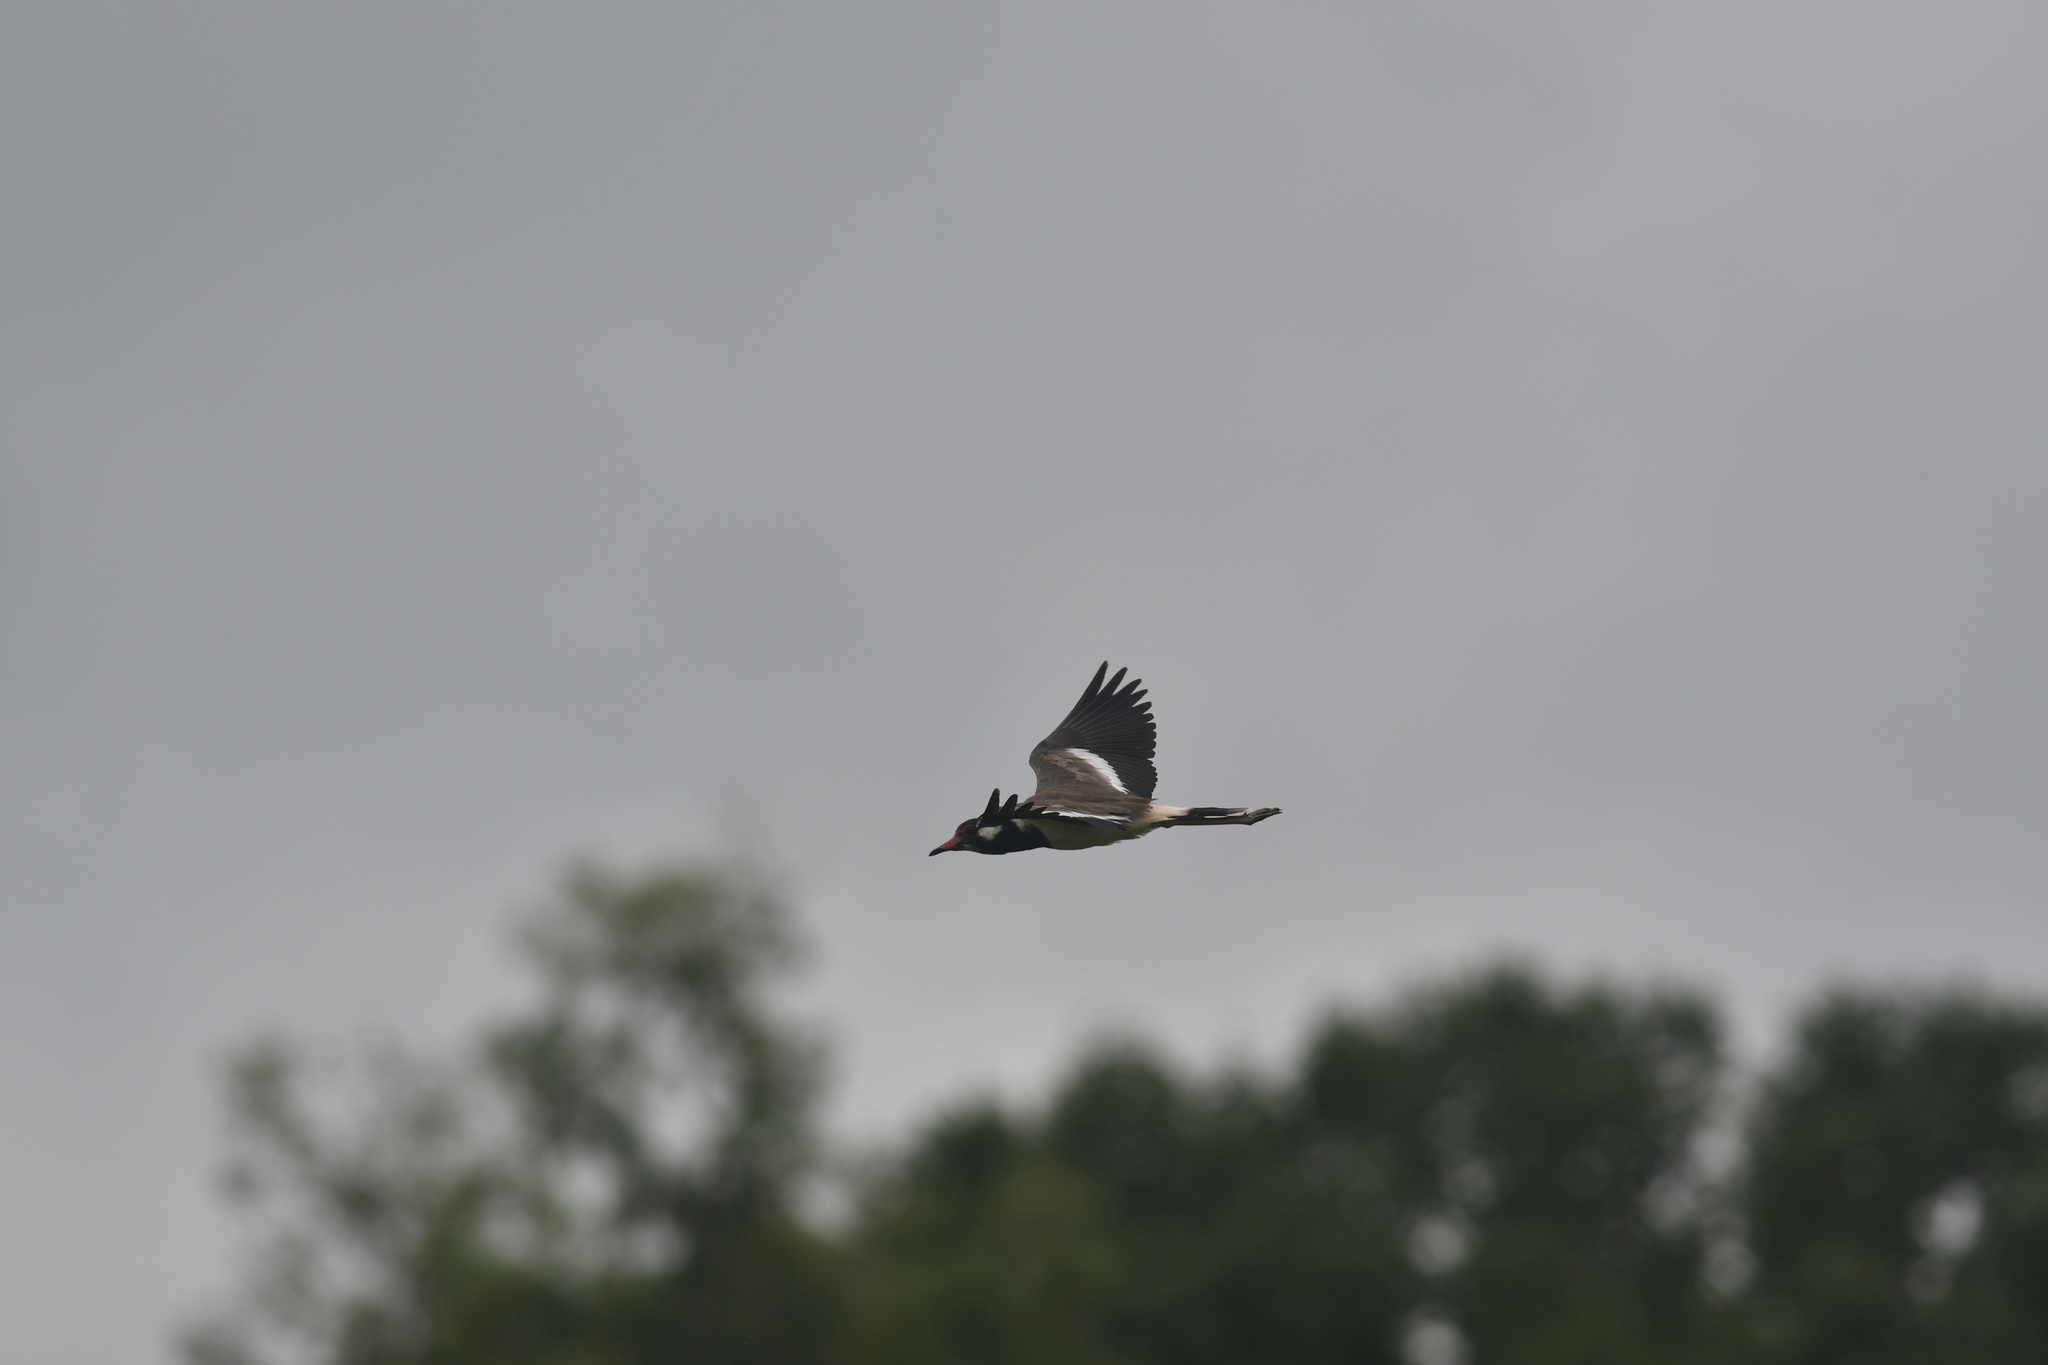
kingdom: Animalia
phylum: Chordata
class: Aves
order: Charadriiformes
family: Charadriidae
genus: Vanellus
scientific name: Vanellus indicus
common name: Red-wattled lapwing
